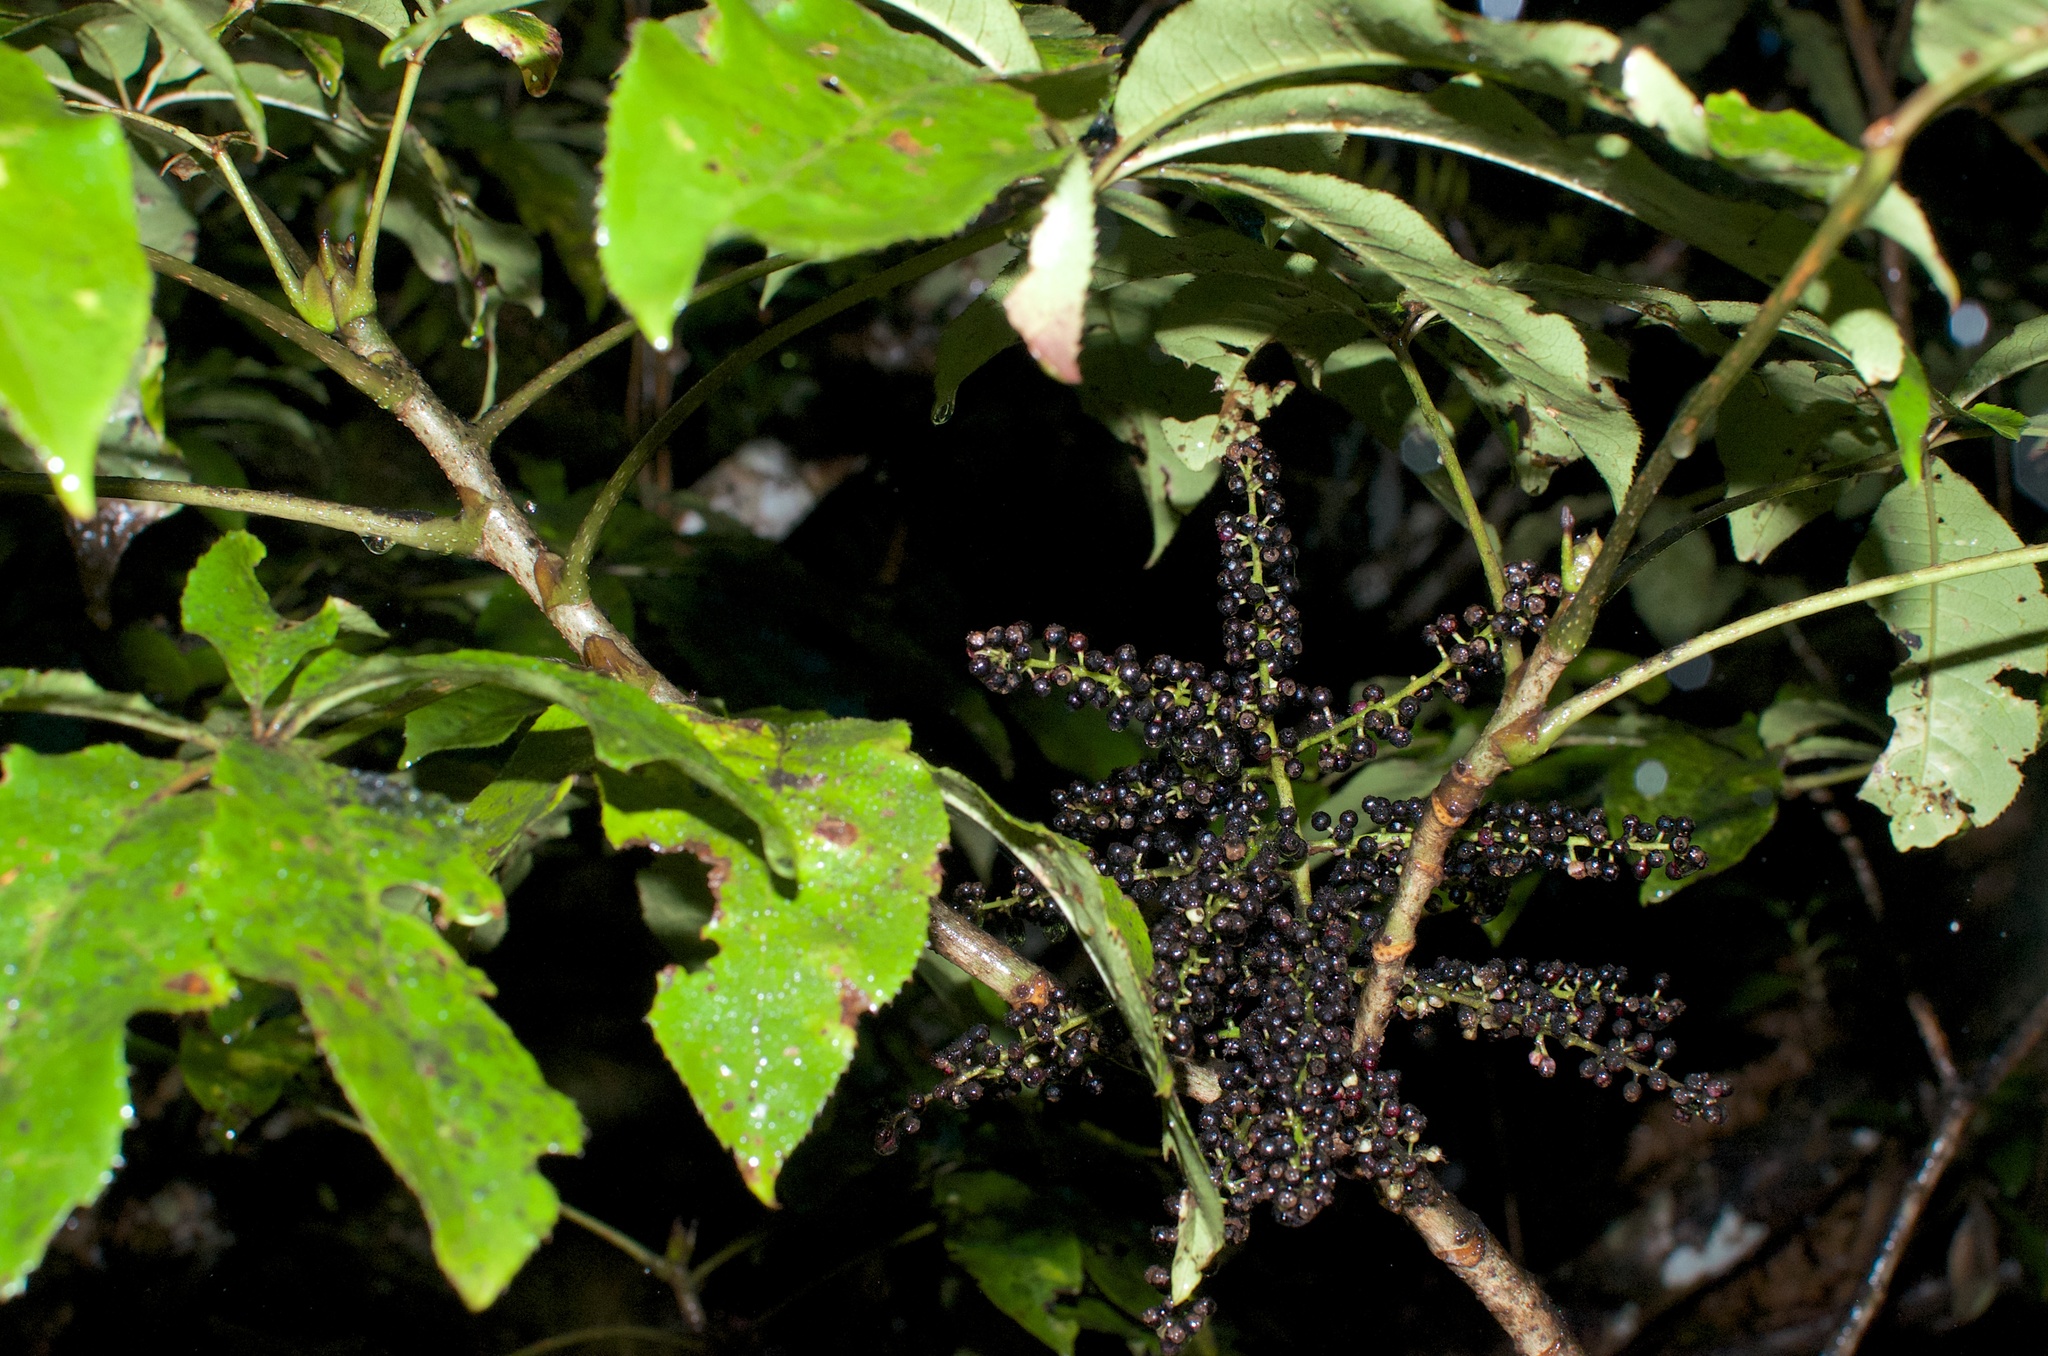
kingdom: Plantae
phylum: Tracheophyta
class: Magnoliopsida
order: Apiales
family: Araliaceae
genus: Schefflera
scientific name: Schefflera digitata
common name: Pate
